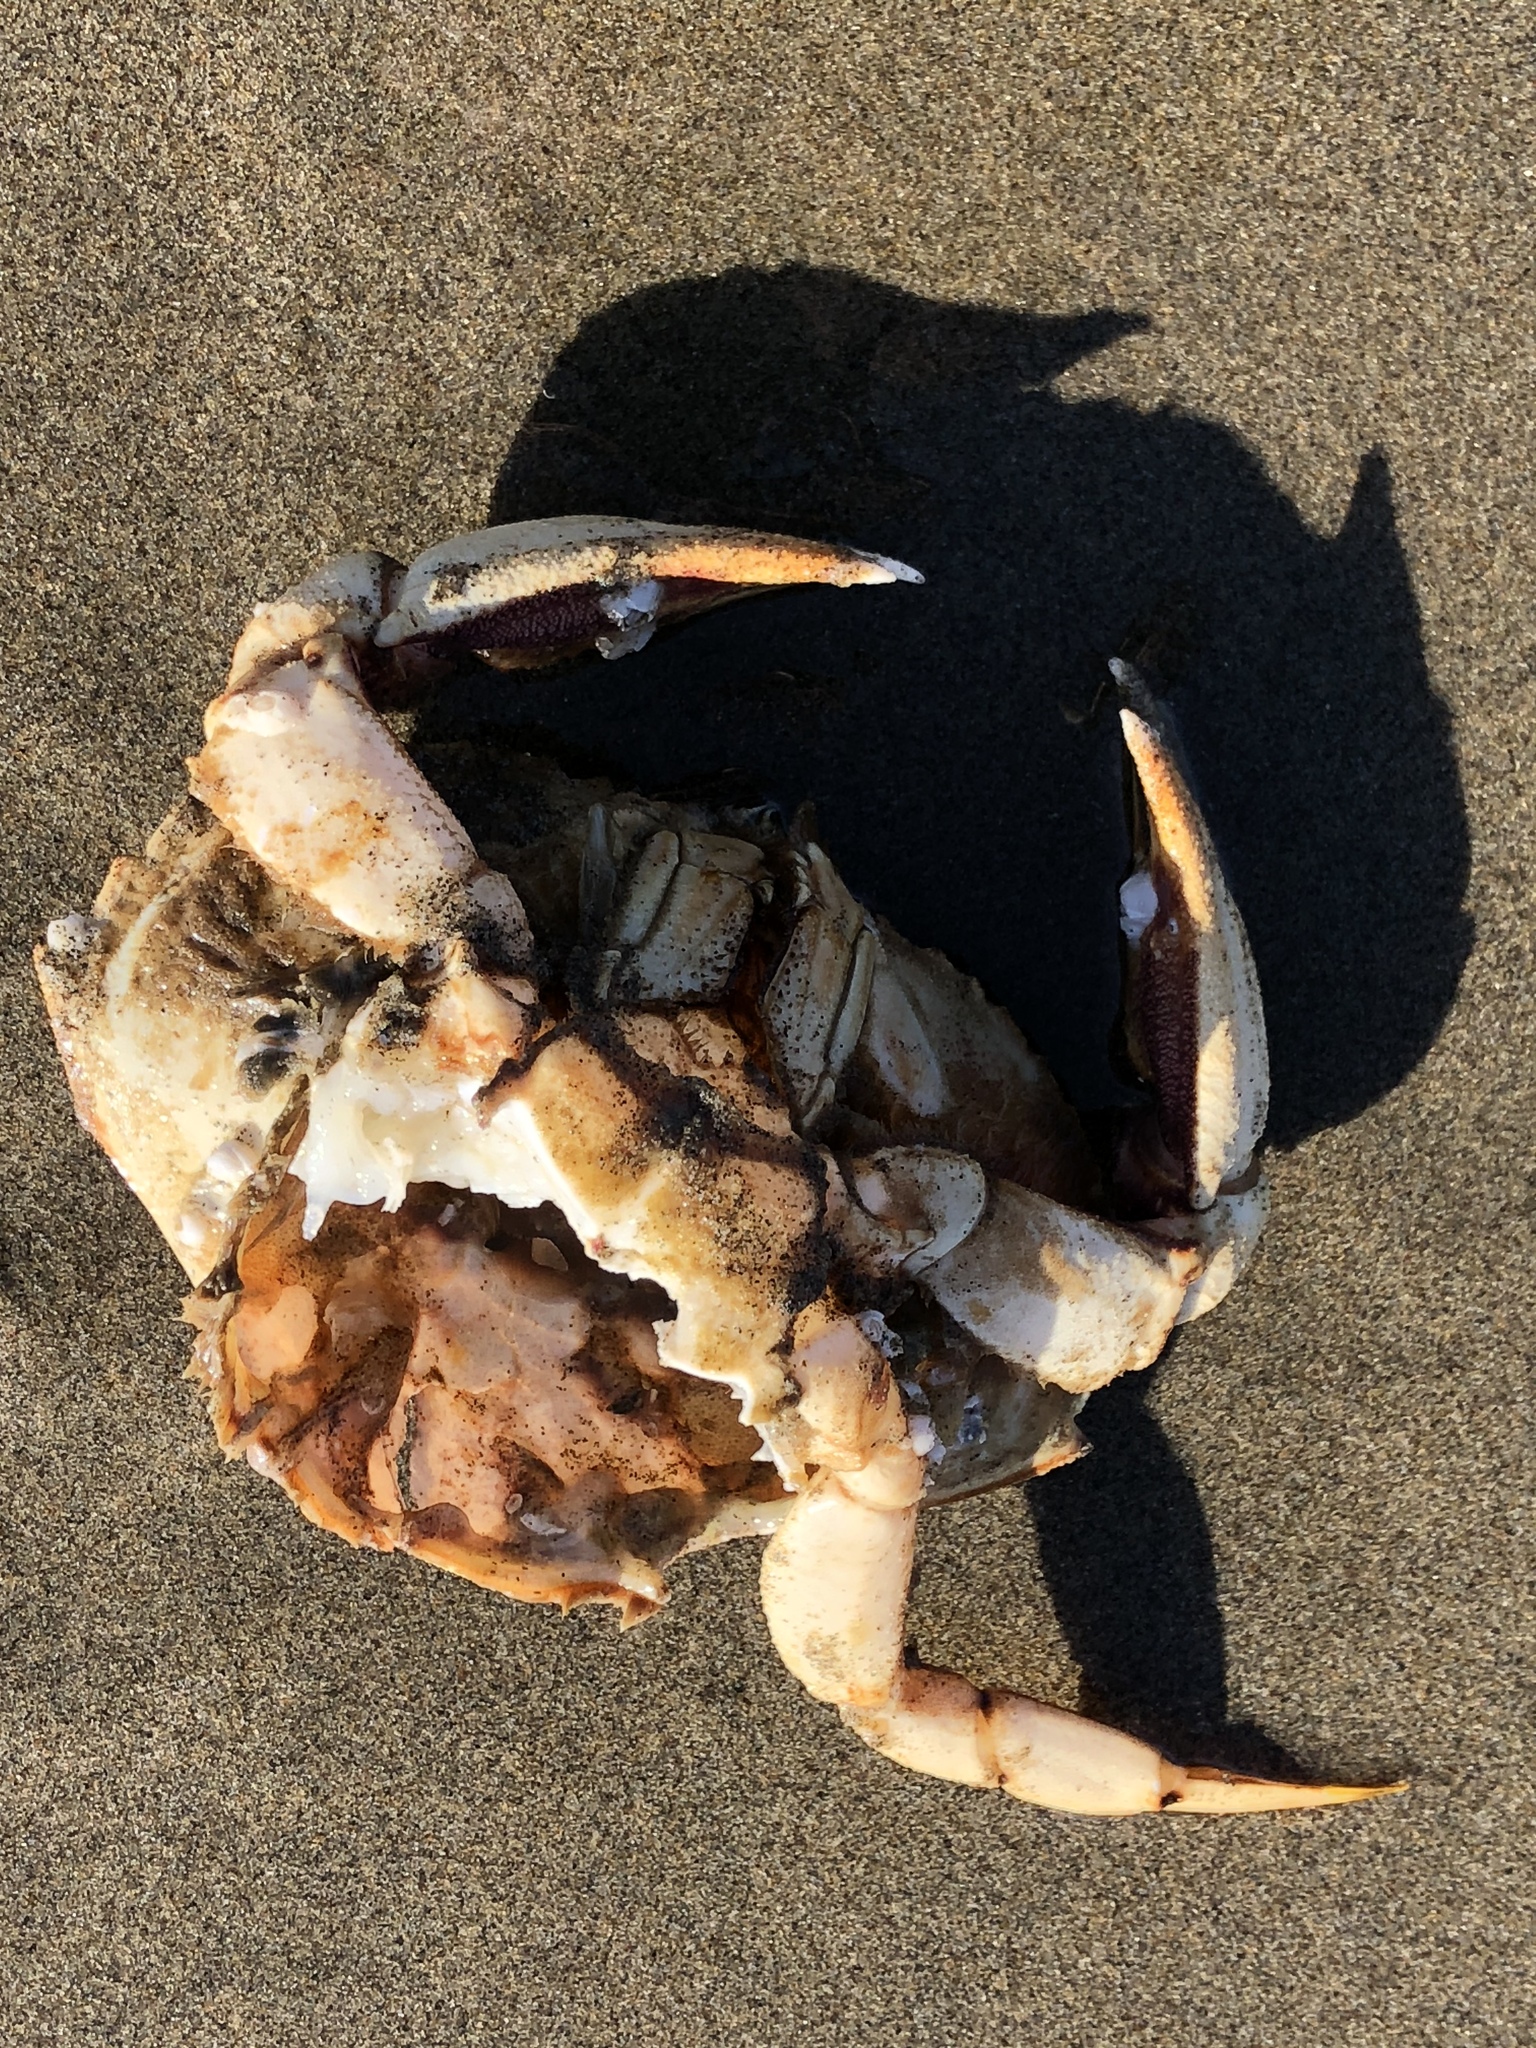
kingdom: Animalia
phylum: Arthropoda
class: Malacostraca
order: Decapoda
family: Cancridae
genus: Metacarcinus
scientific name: Metacarcinus magister
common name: Californian crab
